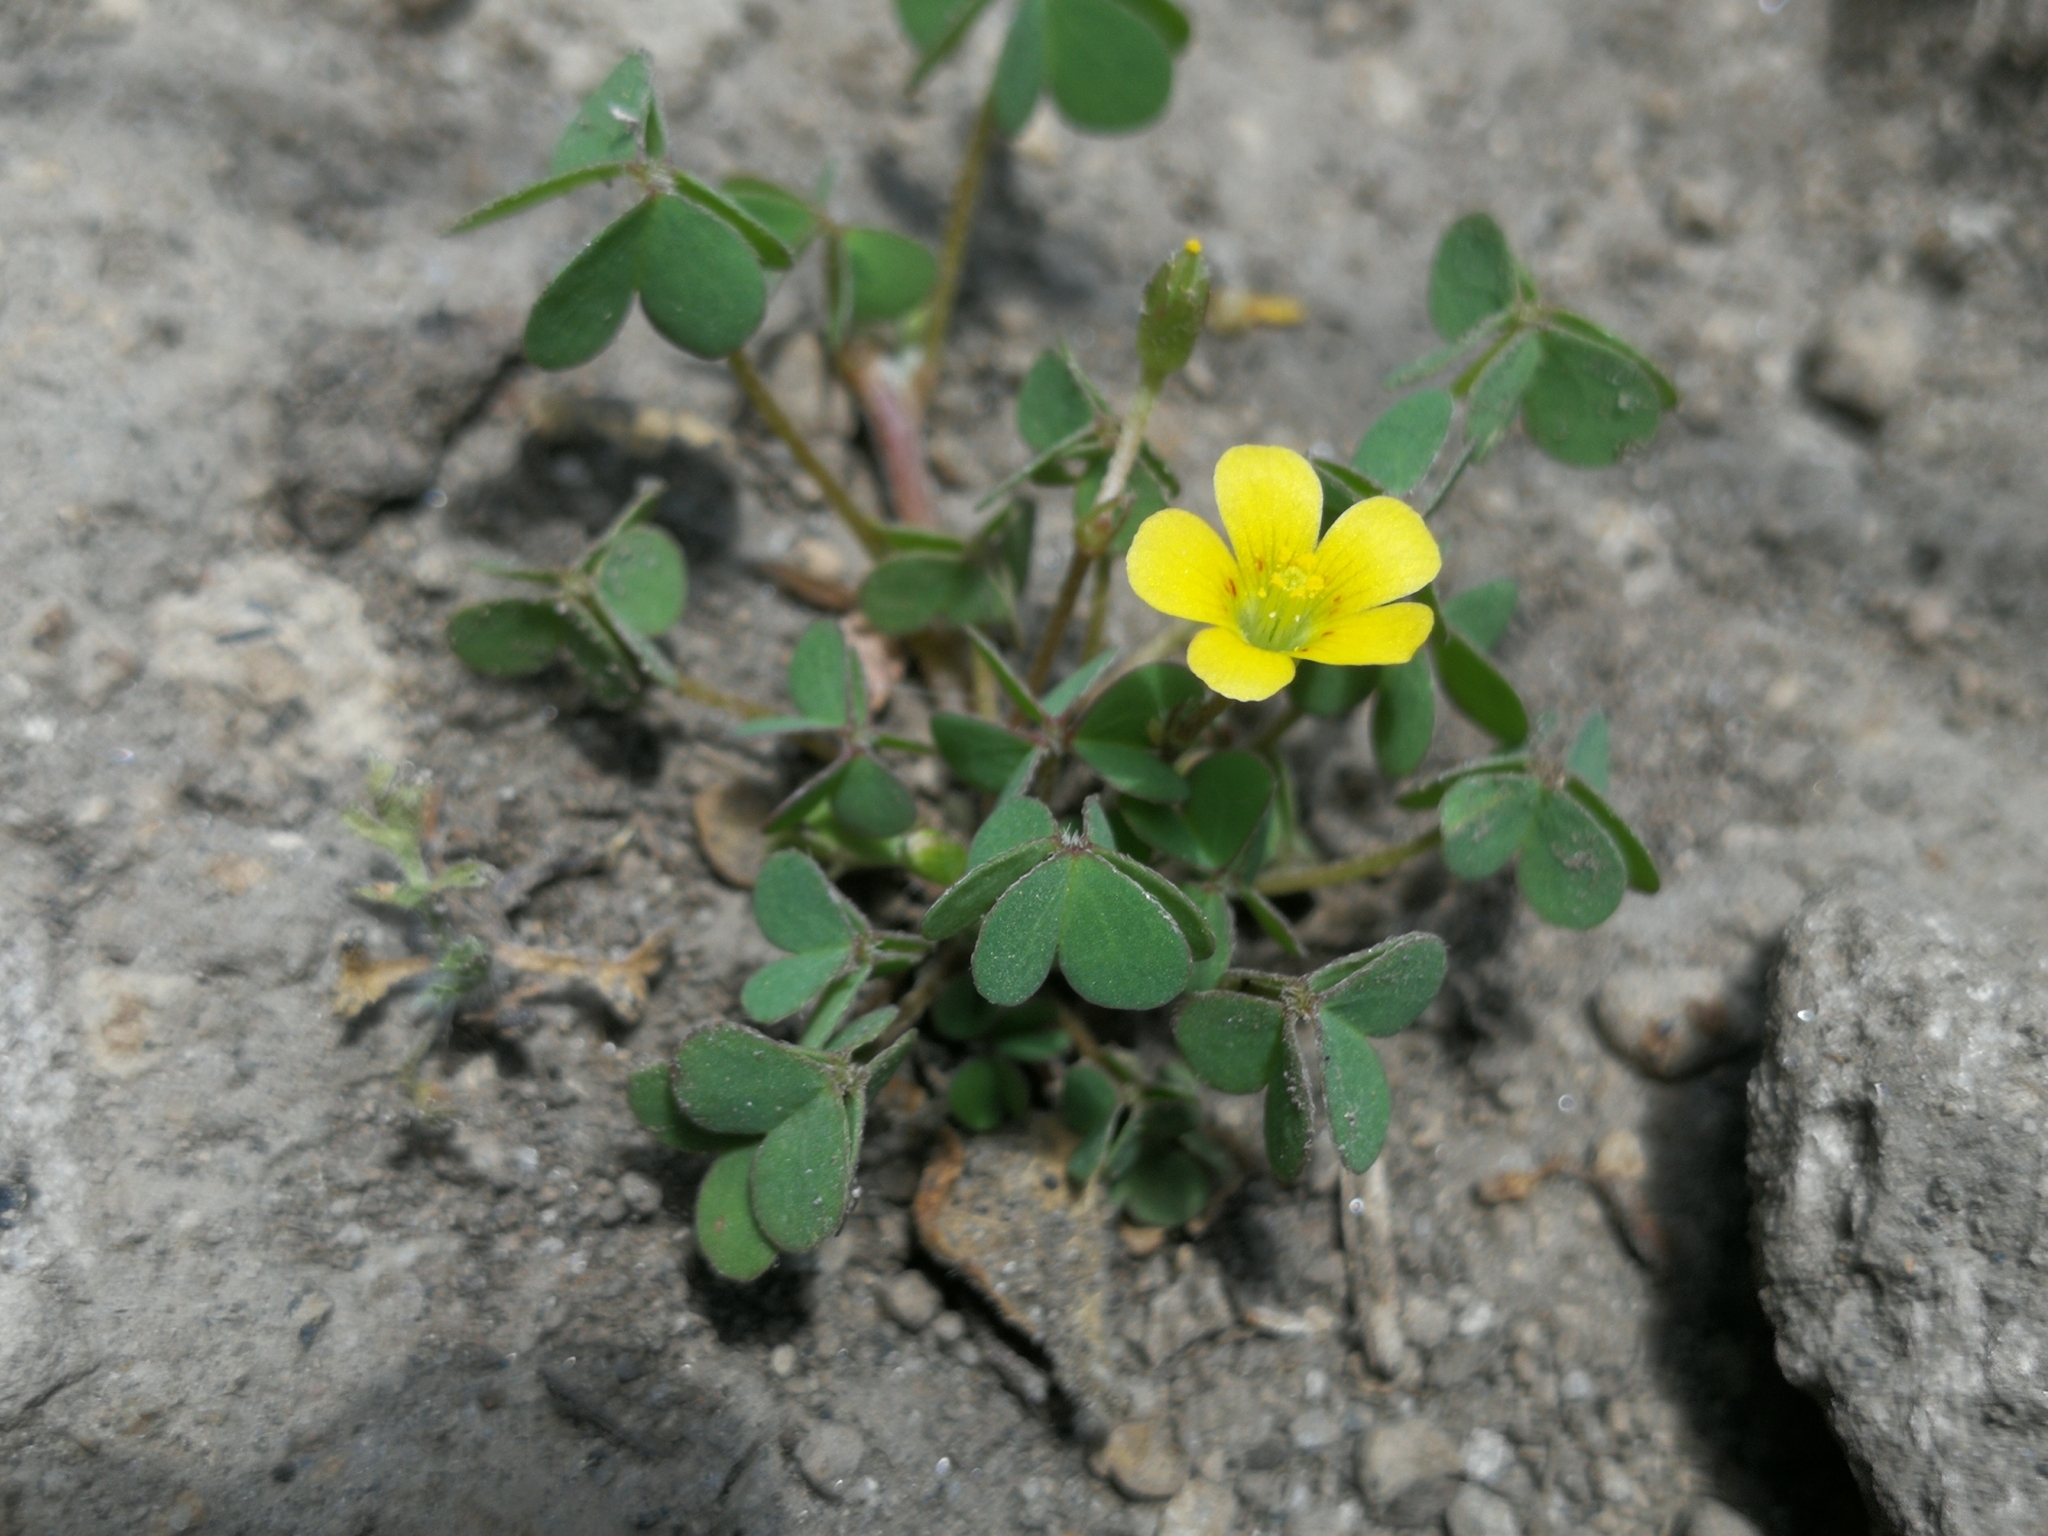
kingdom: Plantae
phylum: Tracheophyta
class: Magnoliopsida
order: Oxalidales
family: Oxalidaceae
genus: Oxalis
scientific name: Oxalis corniculata
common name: Procumbent yellow-sorrel
